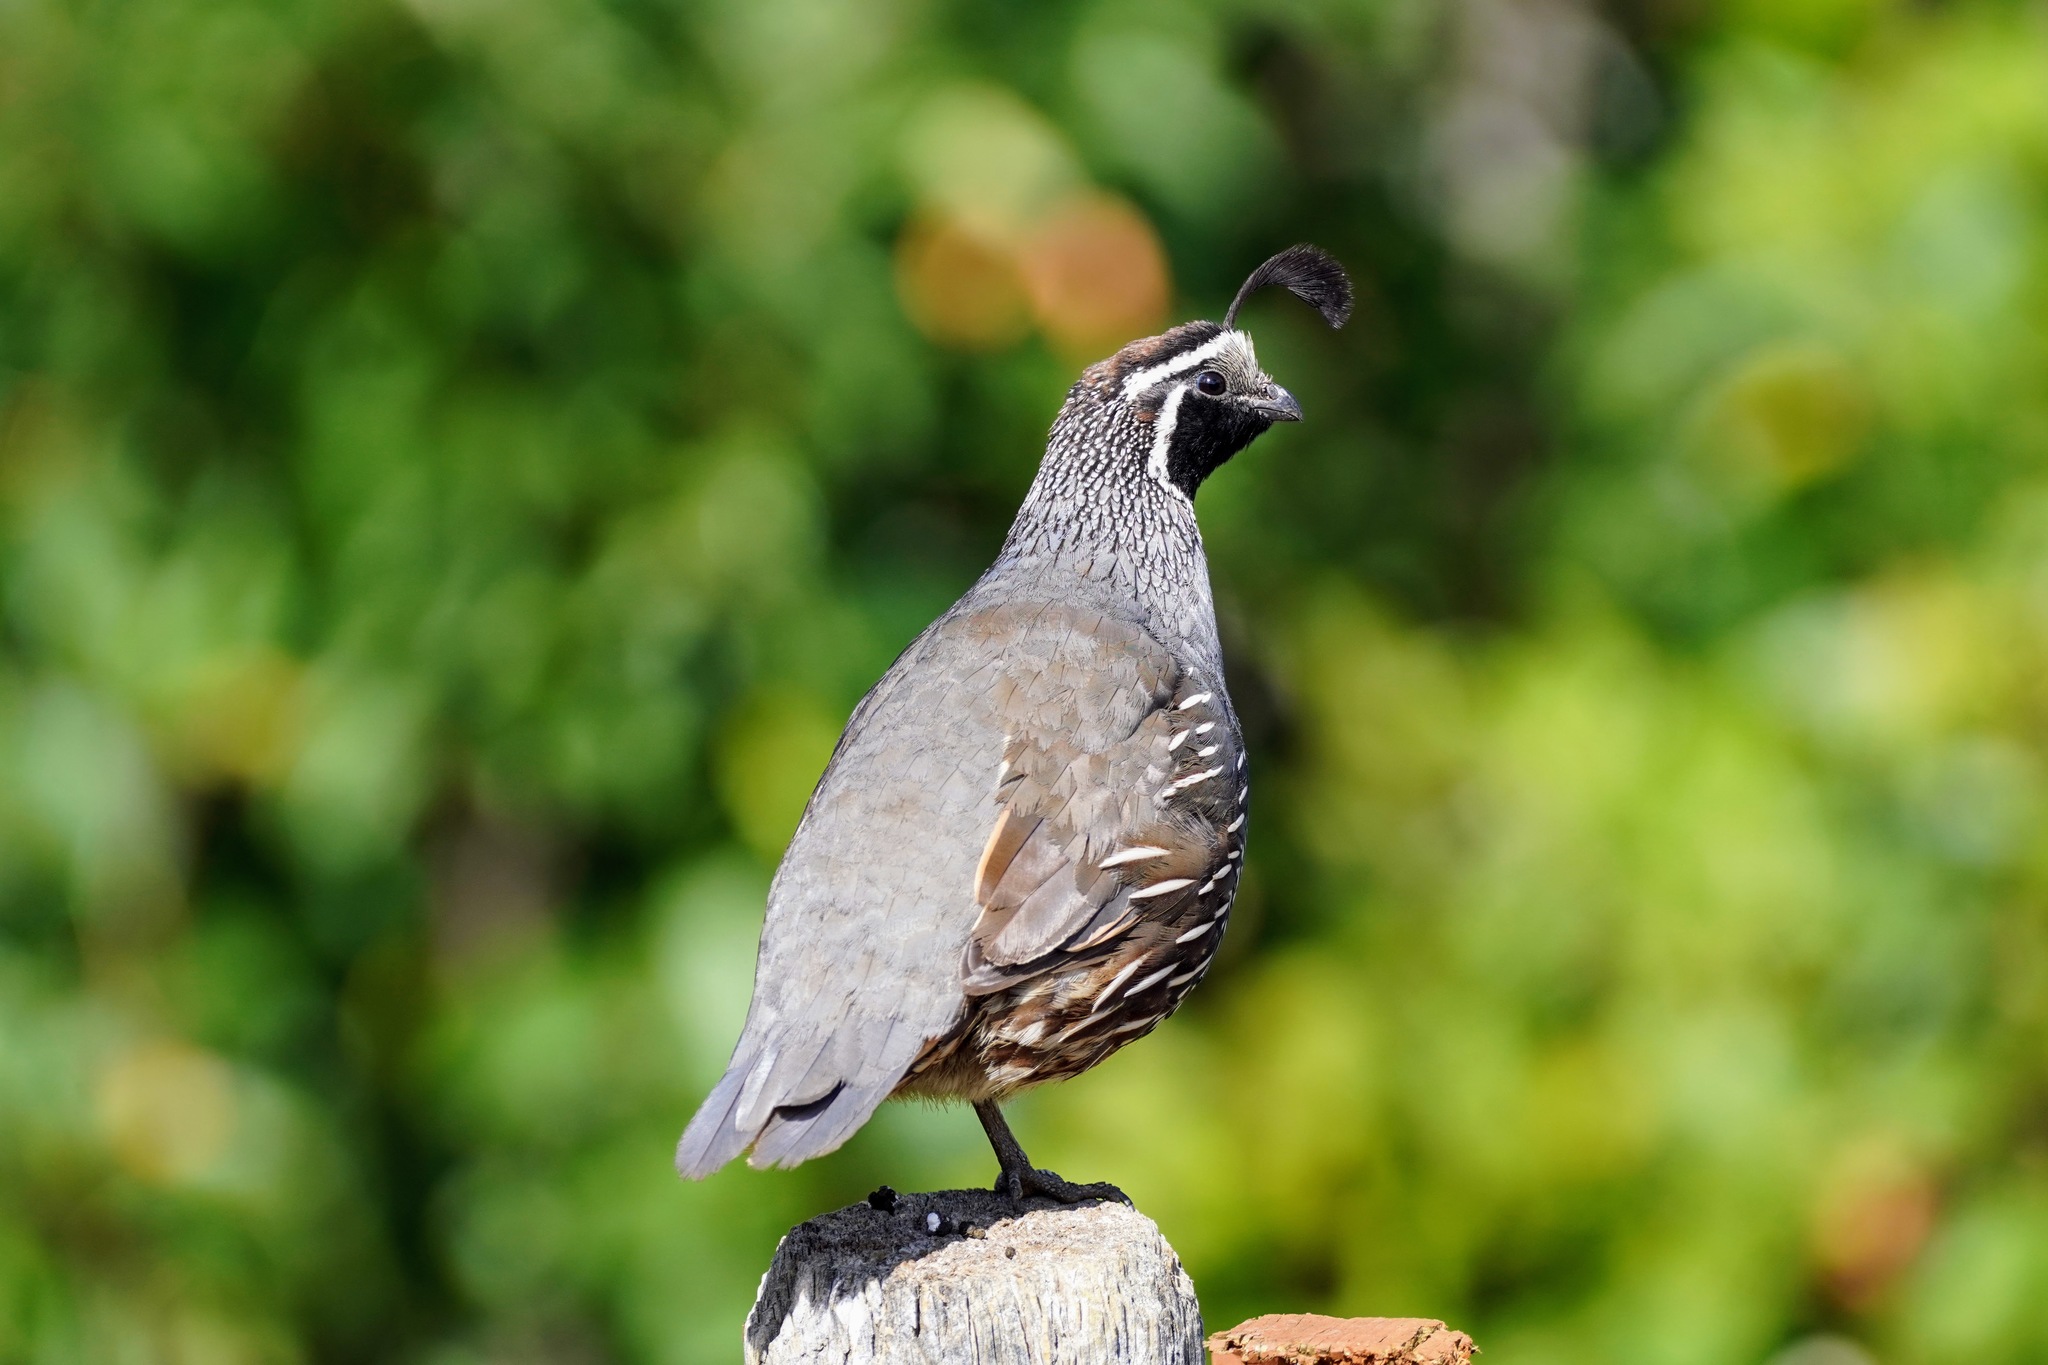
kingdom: Animalia
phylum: Chordata
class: Aves
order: Galliformes
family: Odontophoridae
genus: Callipepla
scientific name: Callipepla californica
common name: California quail
